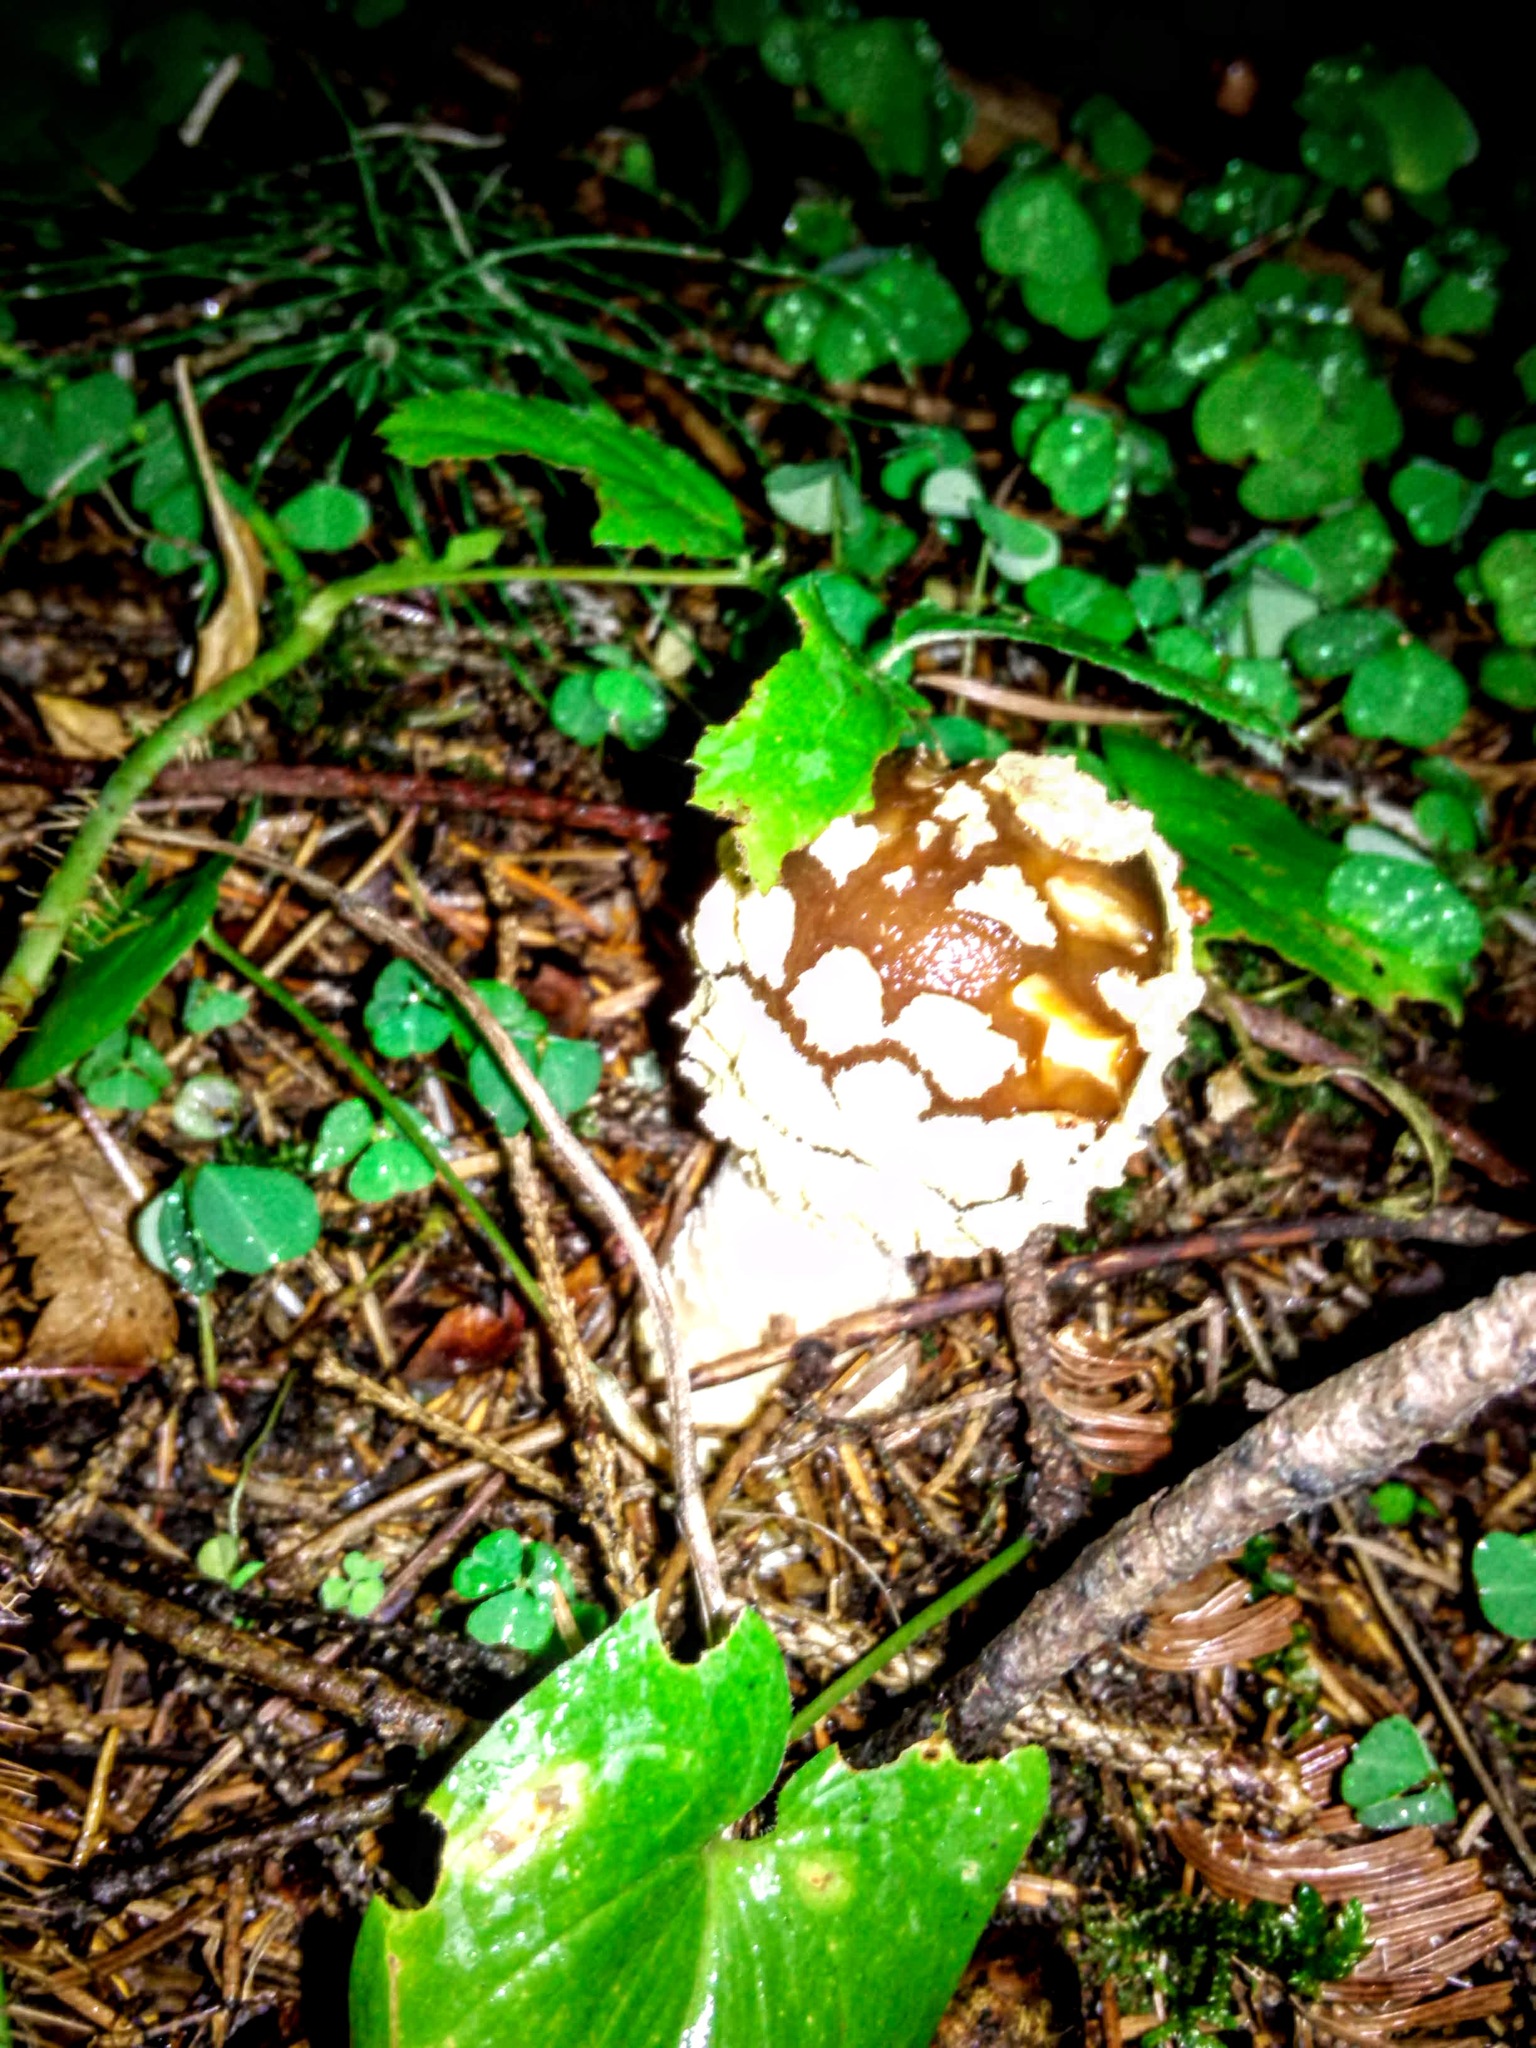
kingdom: Fungi
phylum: Basidiomycota
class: Agaricomycetes
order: Agaricales
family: Amanitaceae
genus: Amanita
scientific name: Amanita regalis
